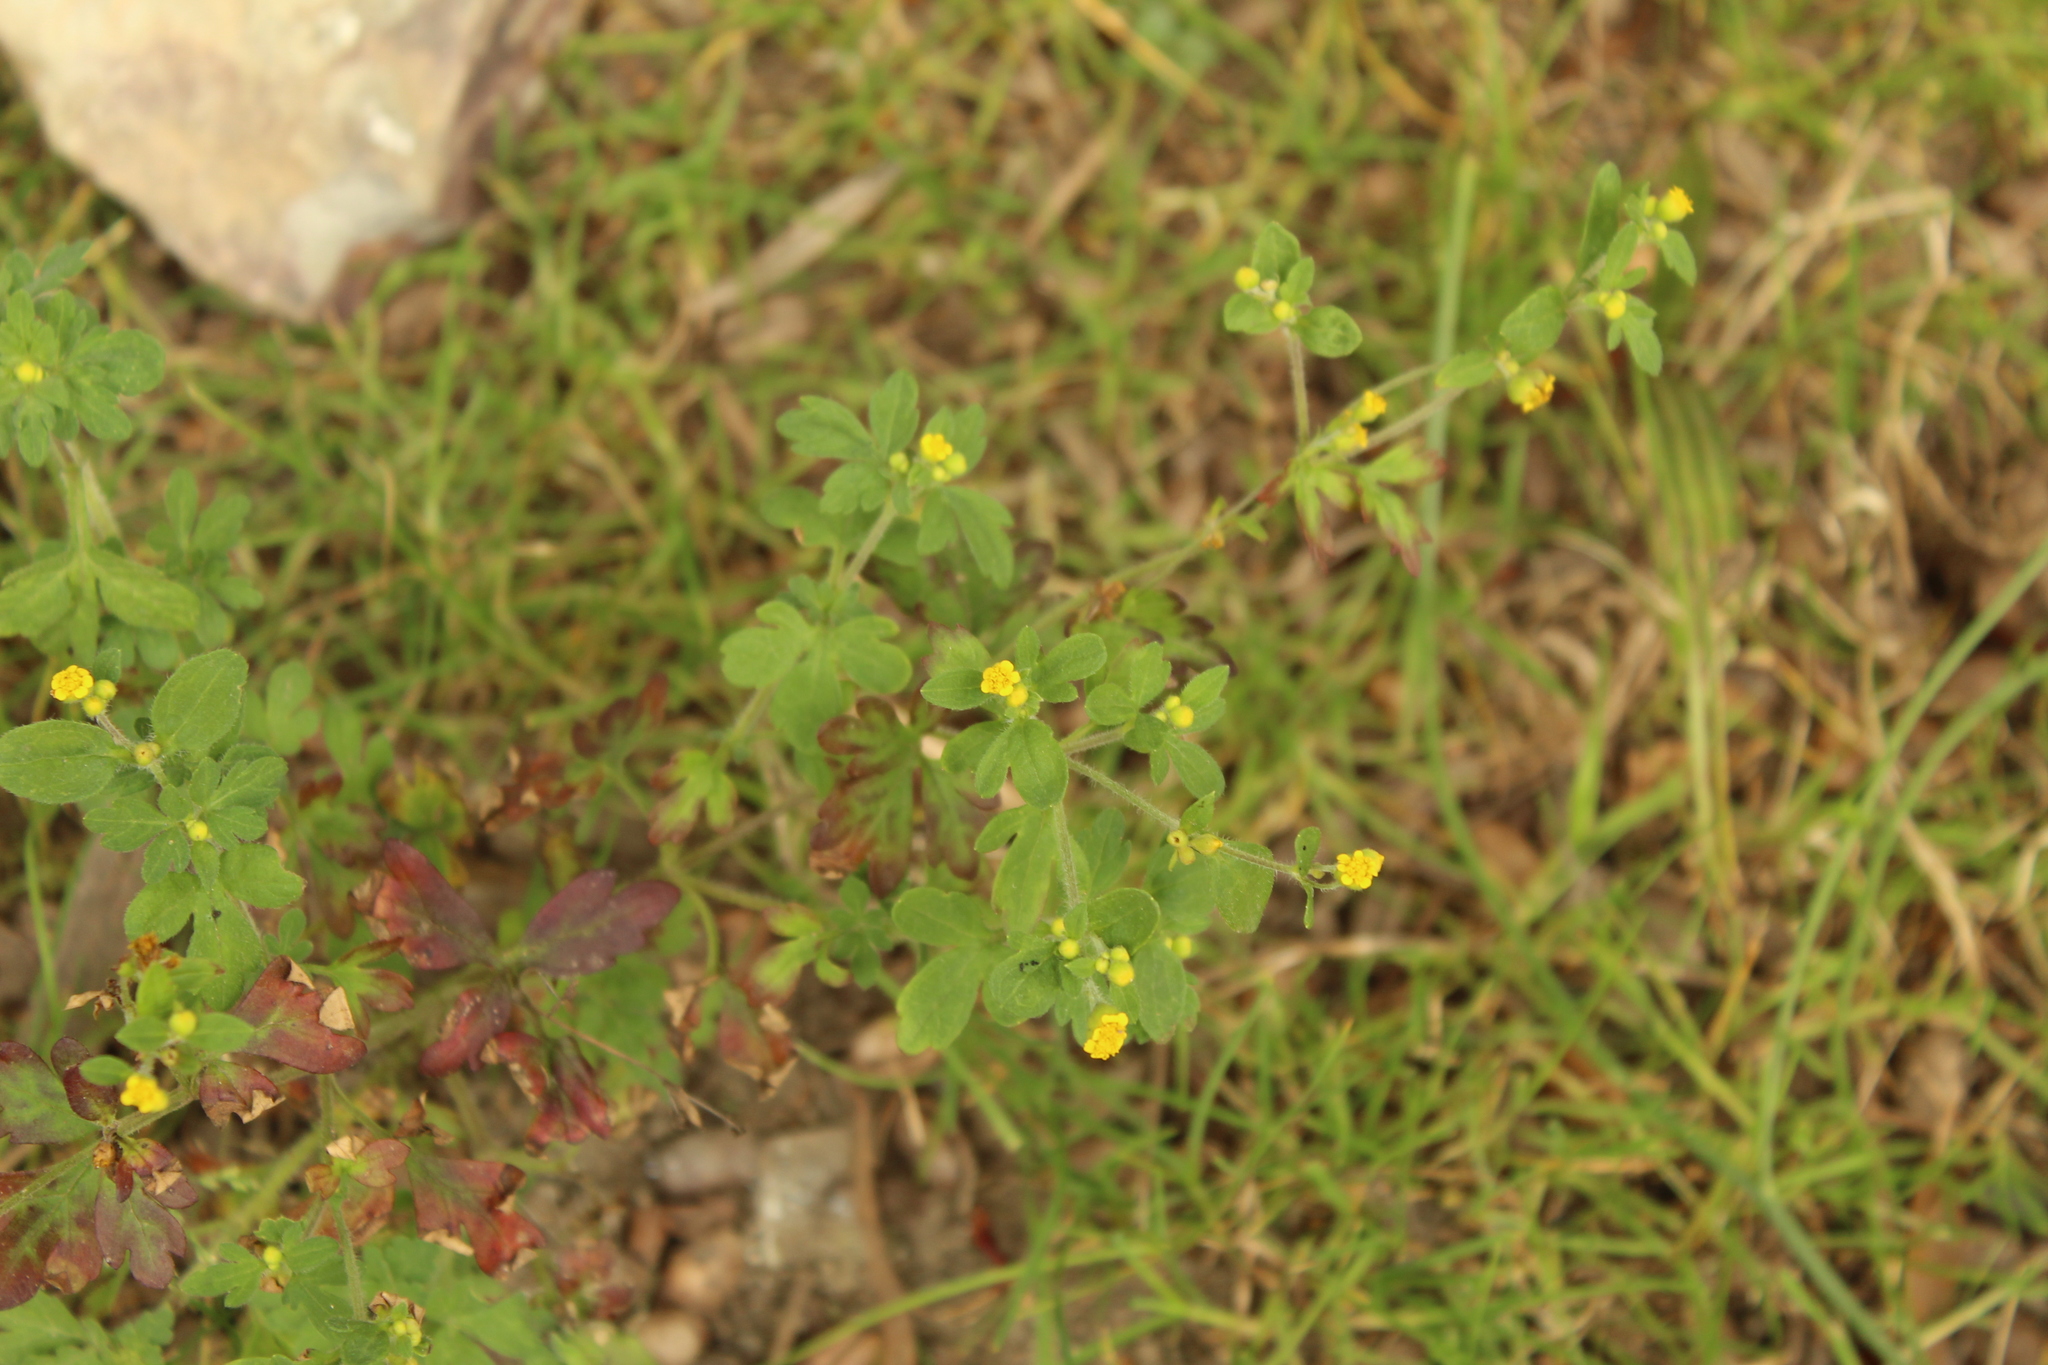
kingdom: Plantae
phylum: Tracheophyta
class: Magnoliopsida
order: Asterales
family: Asteraceae
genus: Villanova
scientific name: Villanova oppositifolia
